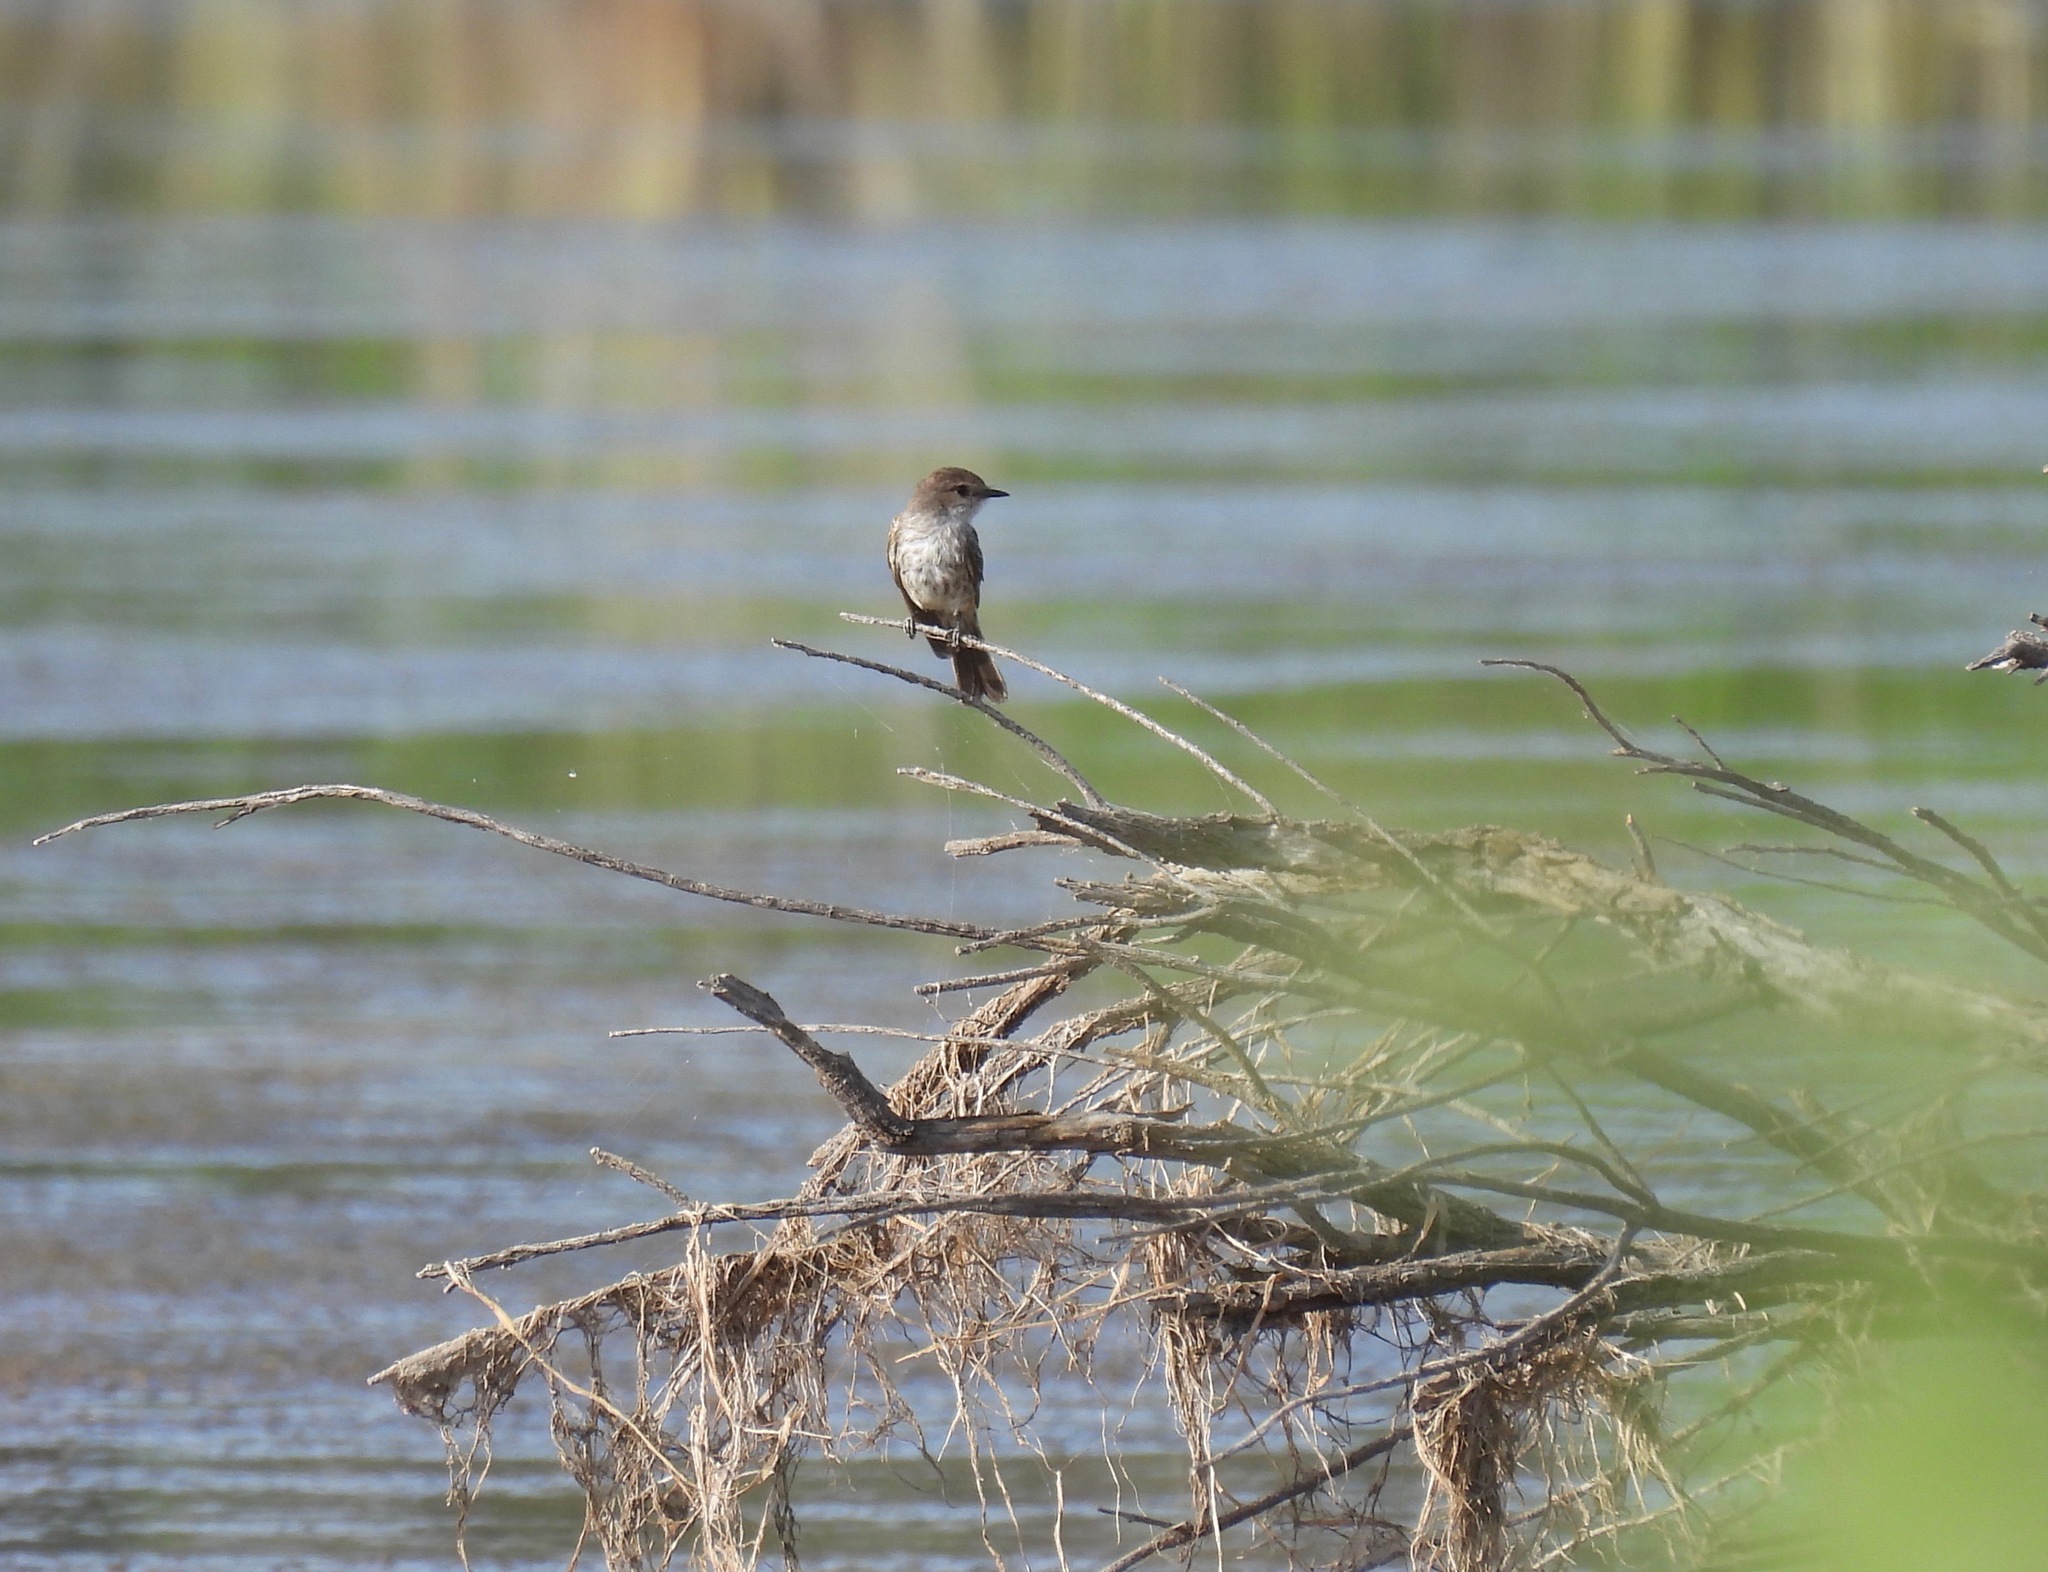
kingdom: Animalia
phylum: Chordata
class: Aves
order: Passeriformes
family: Tyrannidae
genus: Pyrocephalus
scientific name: Pyrocephalus rubinus
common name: Vermilion flycatcher
